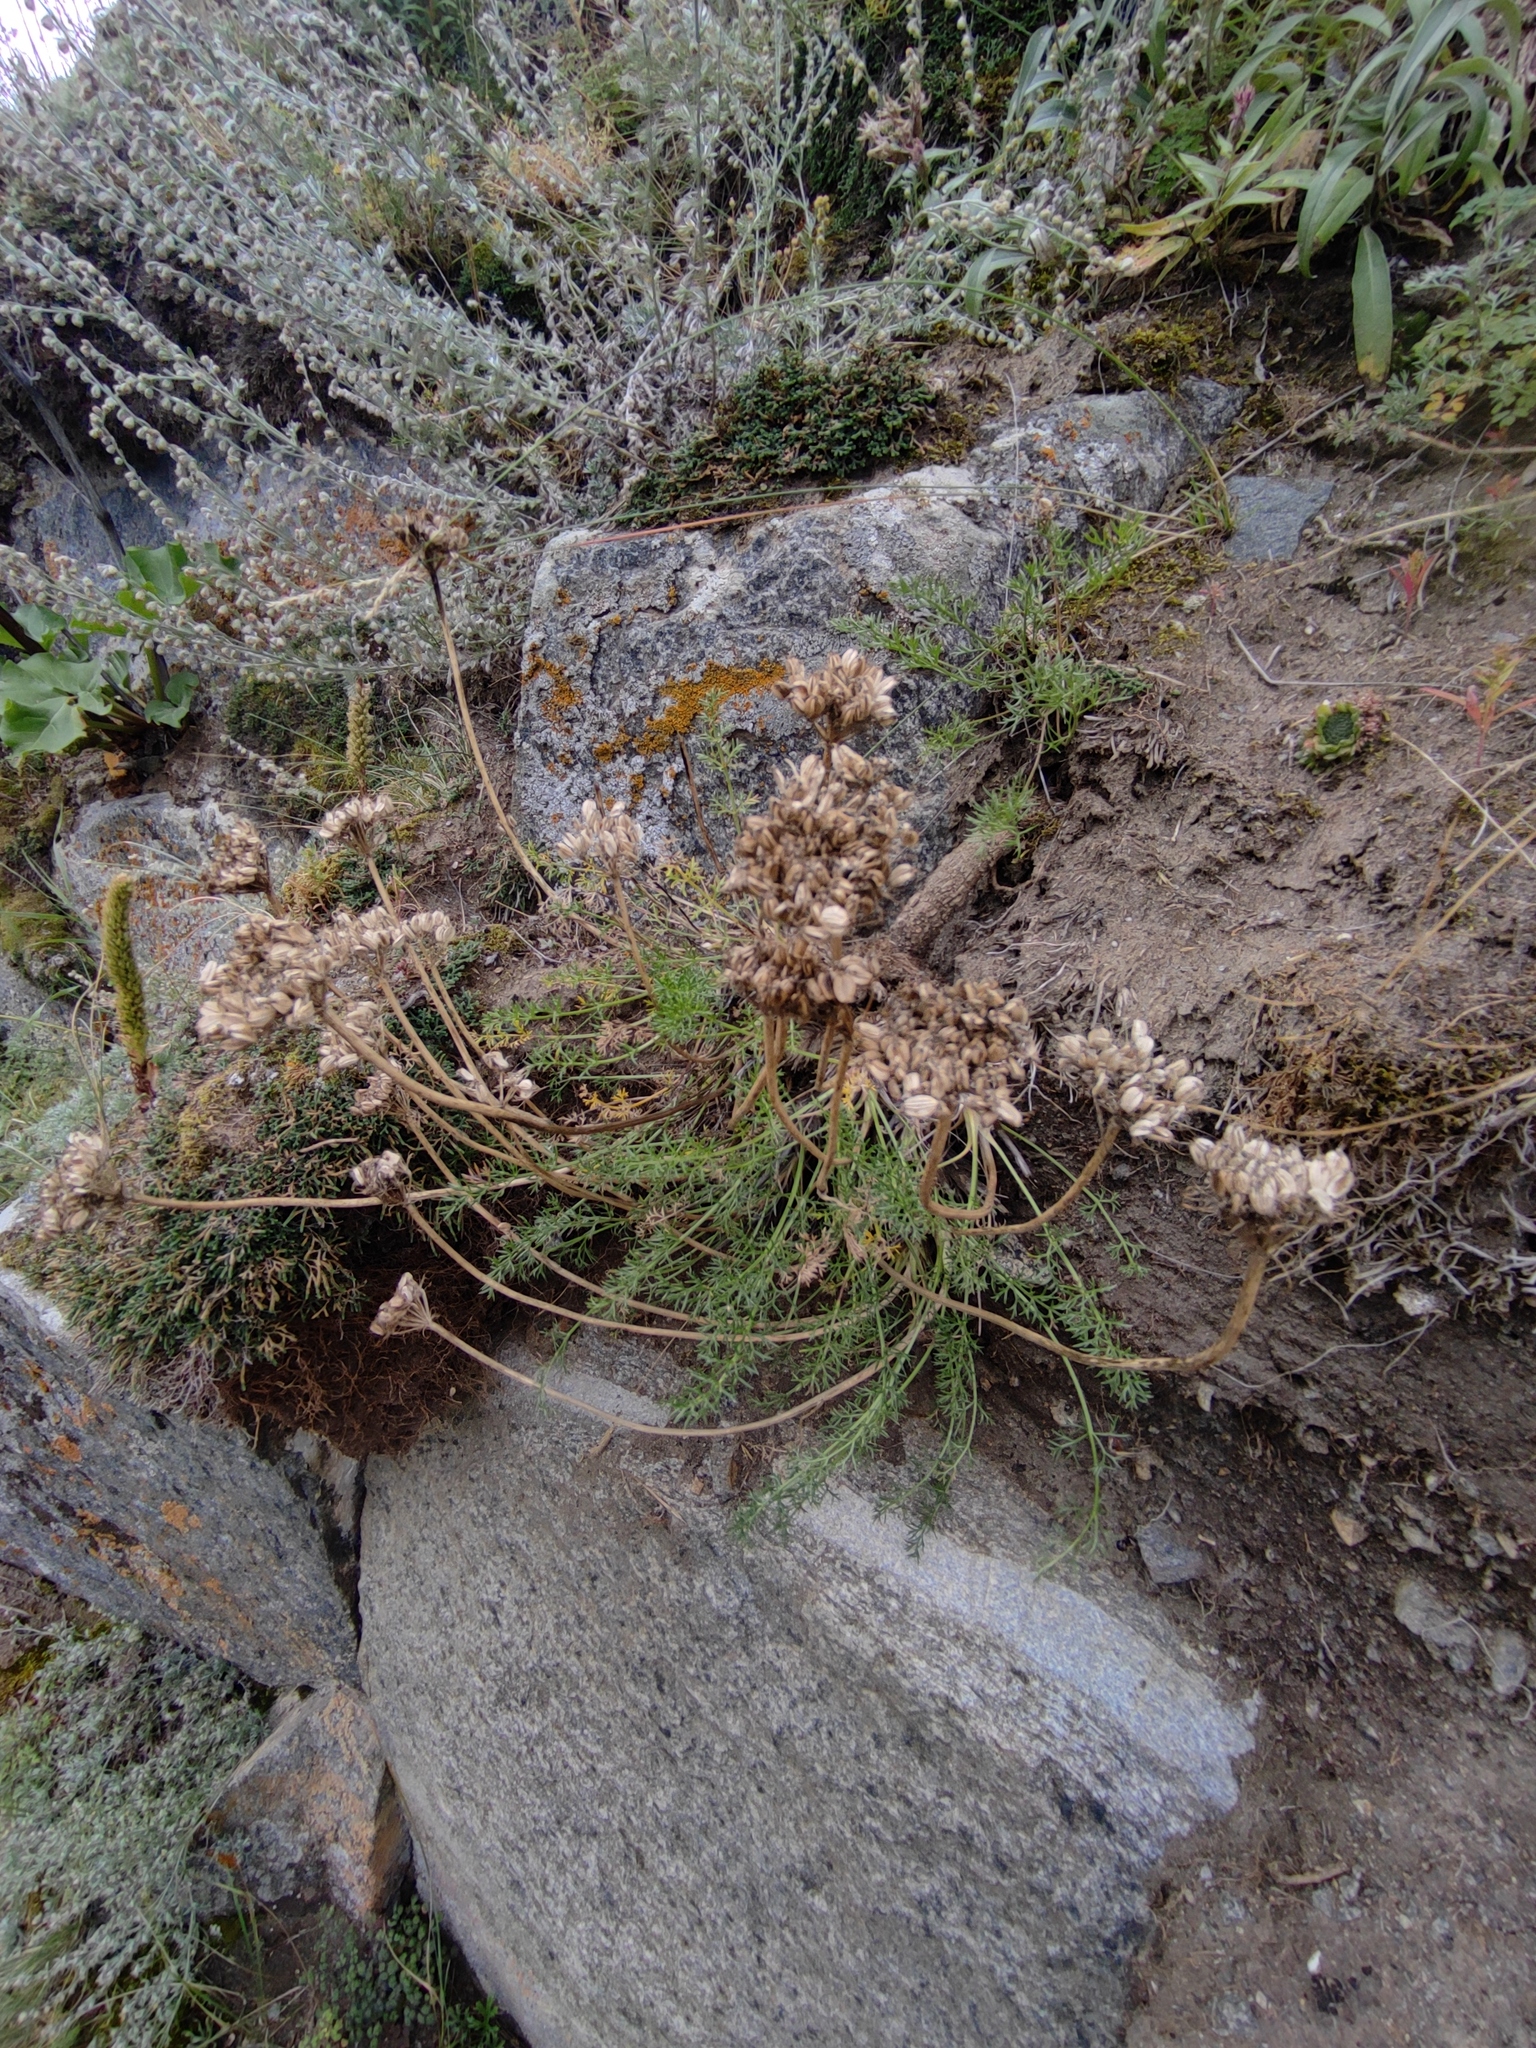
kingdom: Plantae
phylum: Tracheophyta
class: Magnoliopsida
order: Apiales
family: Apiaceae
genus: Ferulopsis
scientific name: Ferulopsis hystrix
